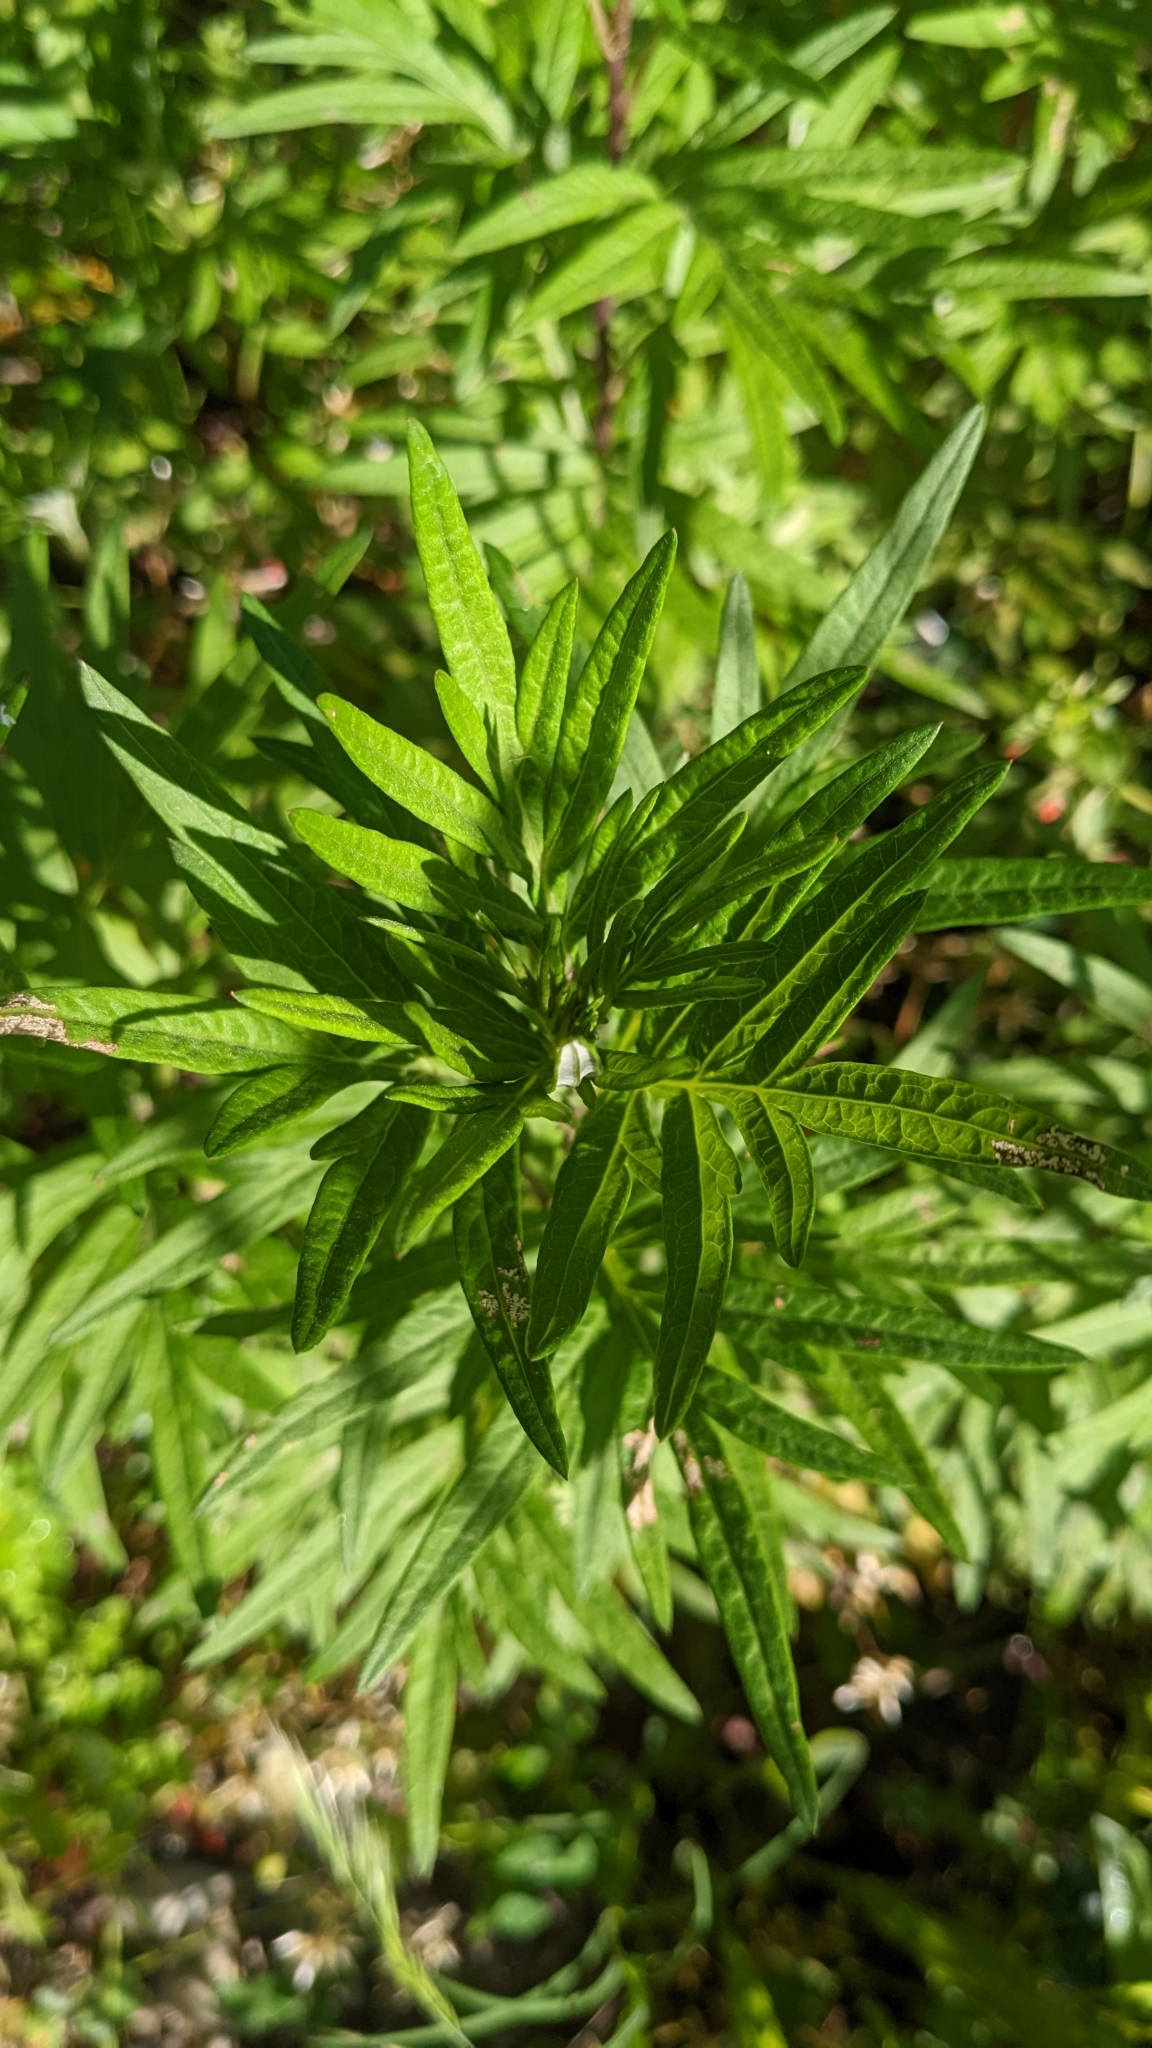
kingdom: Plantae
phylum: Tracheophyta
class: Magnoliopsida
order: Asterales
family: Asteraceae
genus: Artemisia
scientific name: Artemisia verlotiorum
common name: Chinese mugwort
